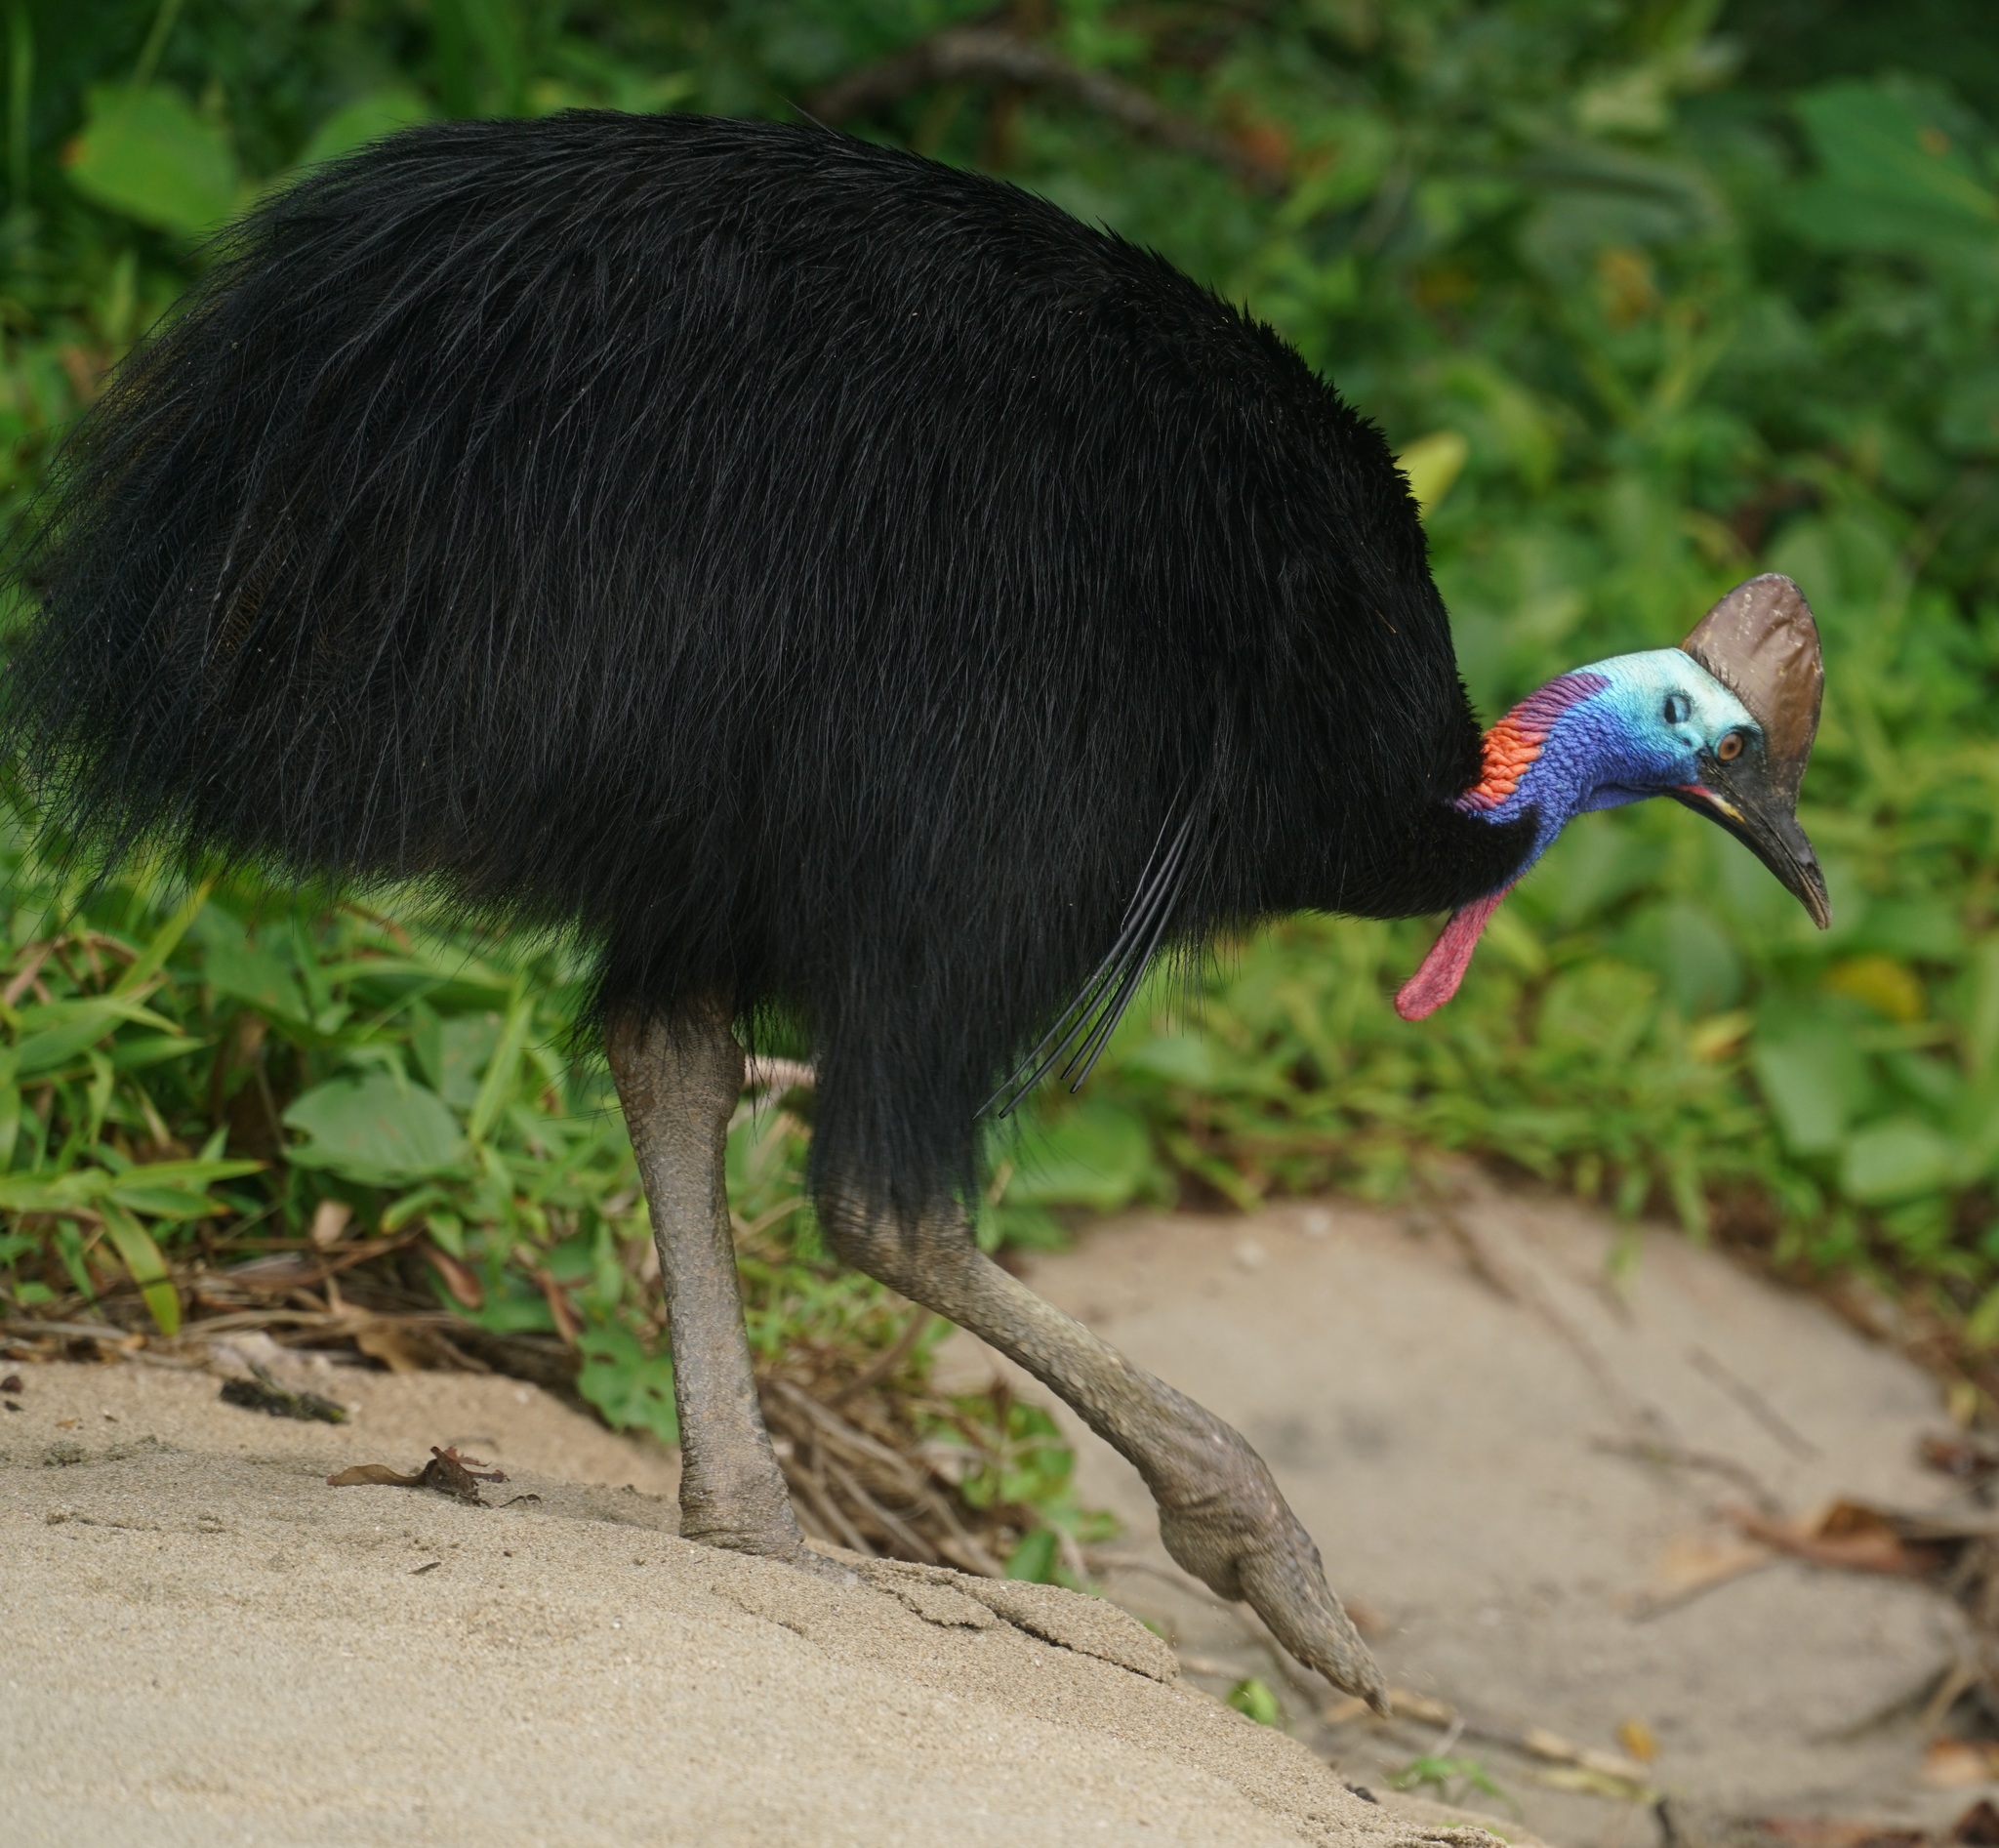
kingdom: Animalia
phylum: Chordata
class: Aves
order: Casuariiformes
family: Casuariidae
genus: Casuarius
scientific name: Casuarius casuarius
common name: Southern cassowary
